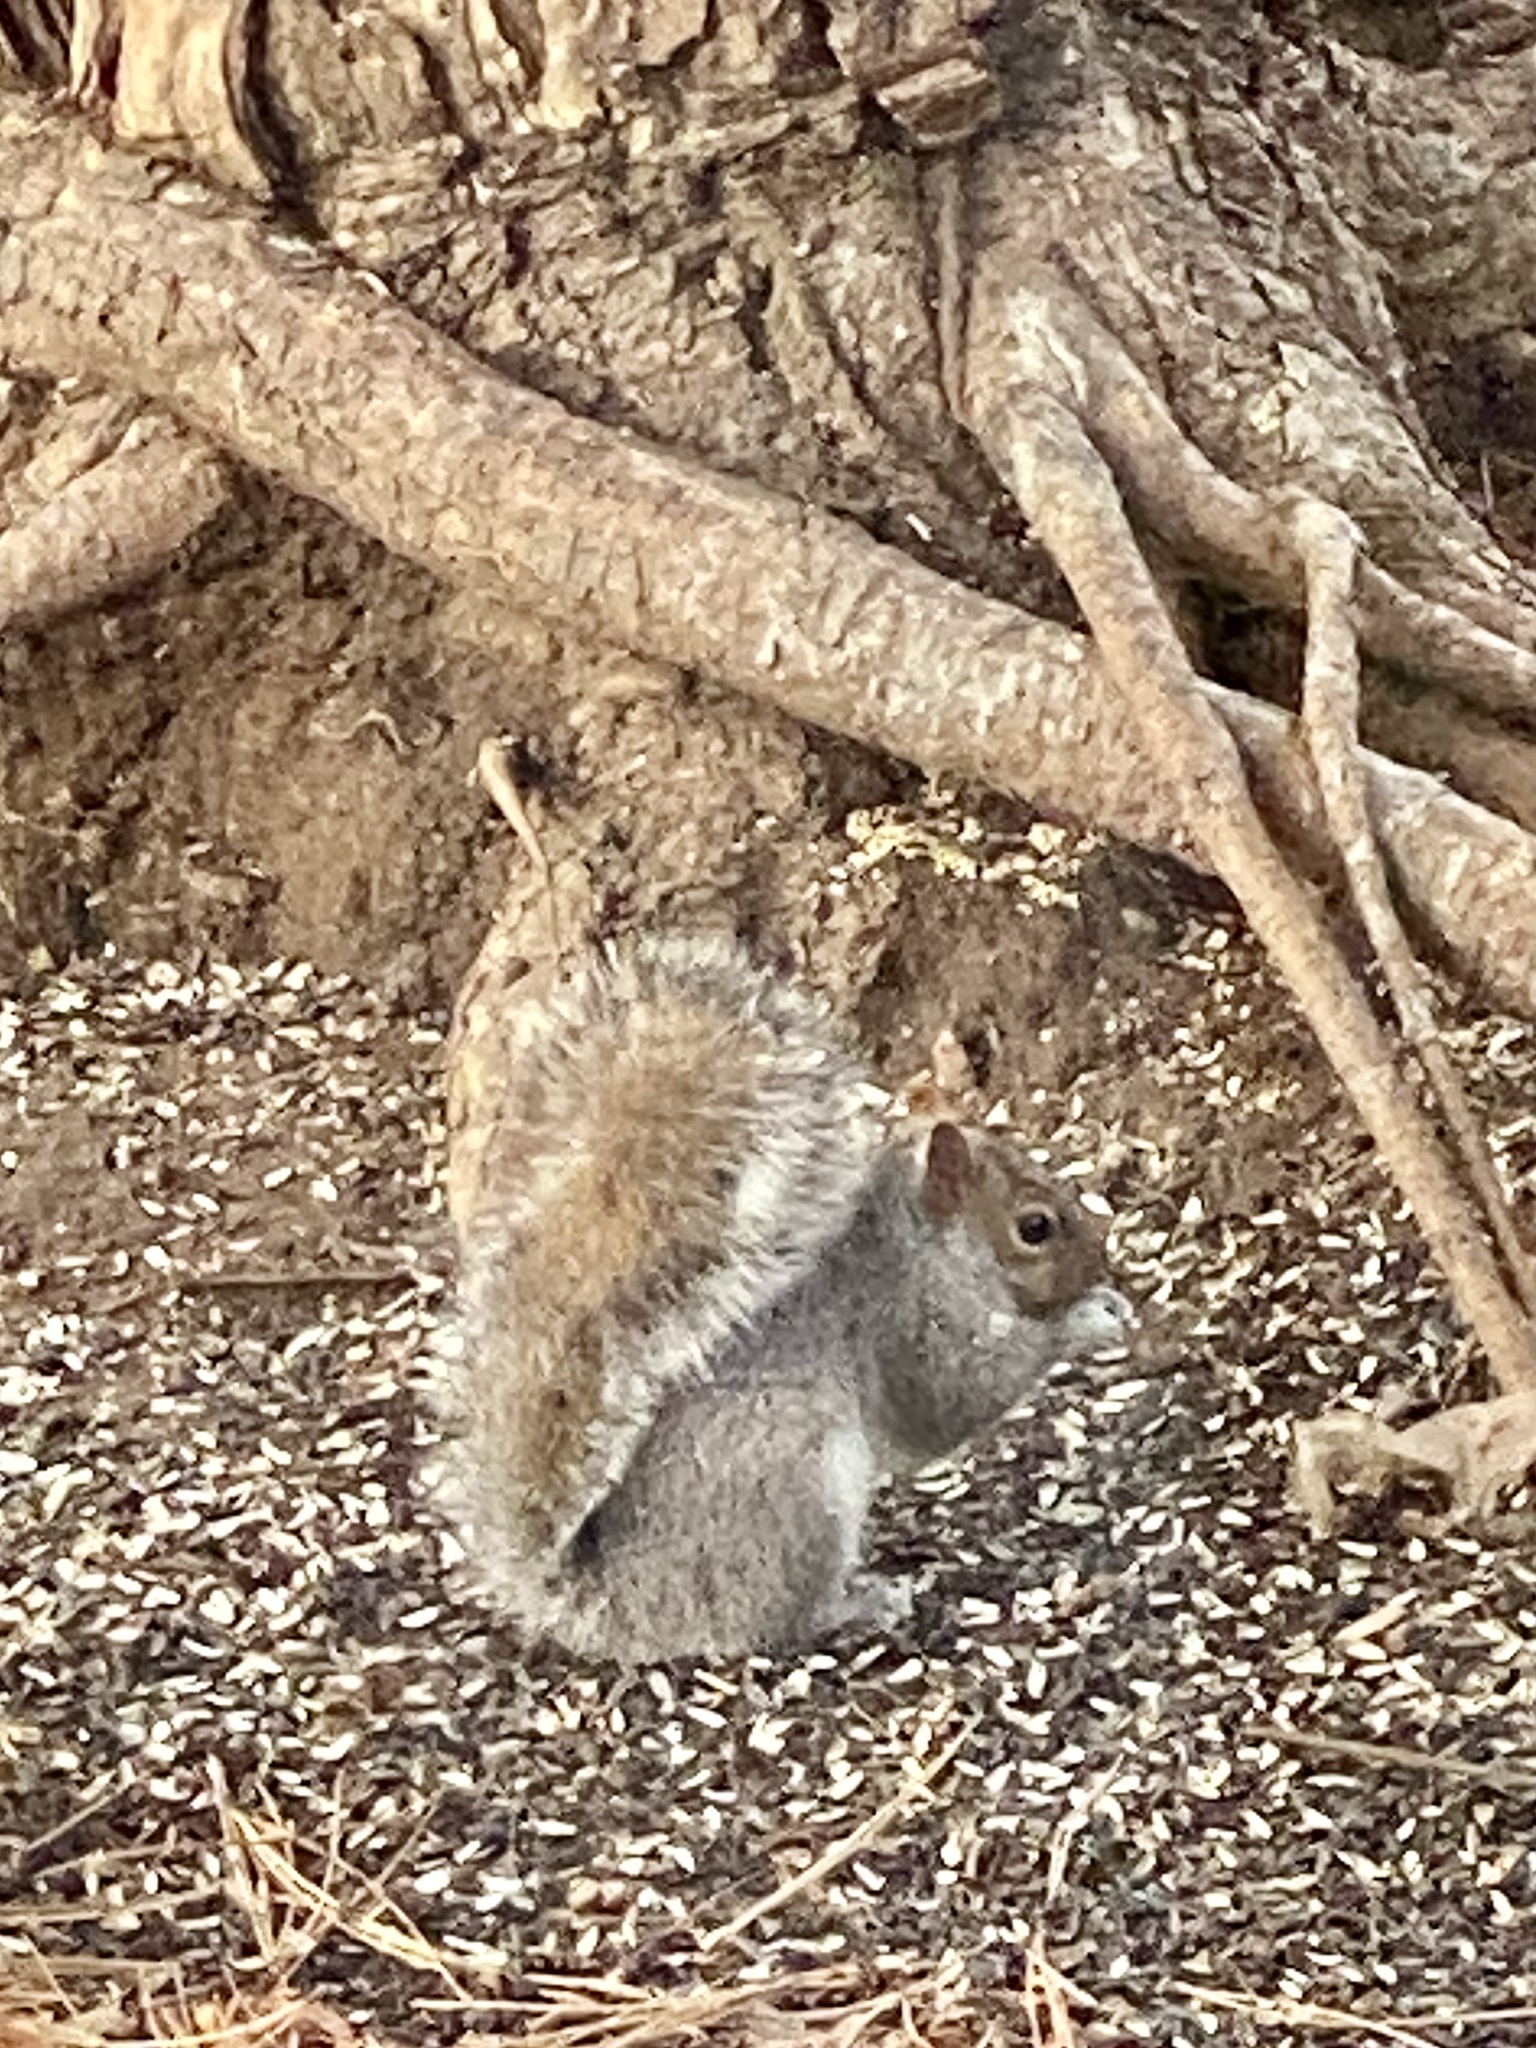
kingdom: Animalia
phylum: Chordata
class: Mammalia
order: Rodentia
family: Sciuridae
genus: Sciurus
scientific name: Sciurus carolinensis
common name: Eastern gray squirrel
